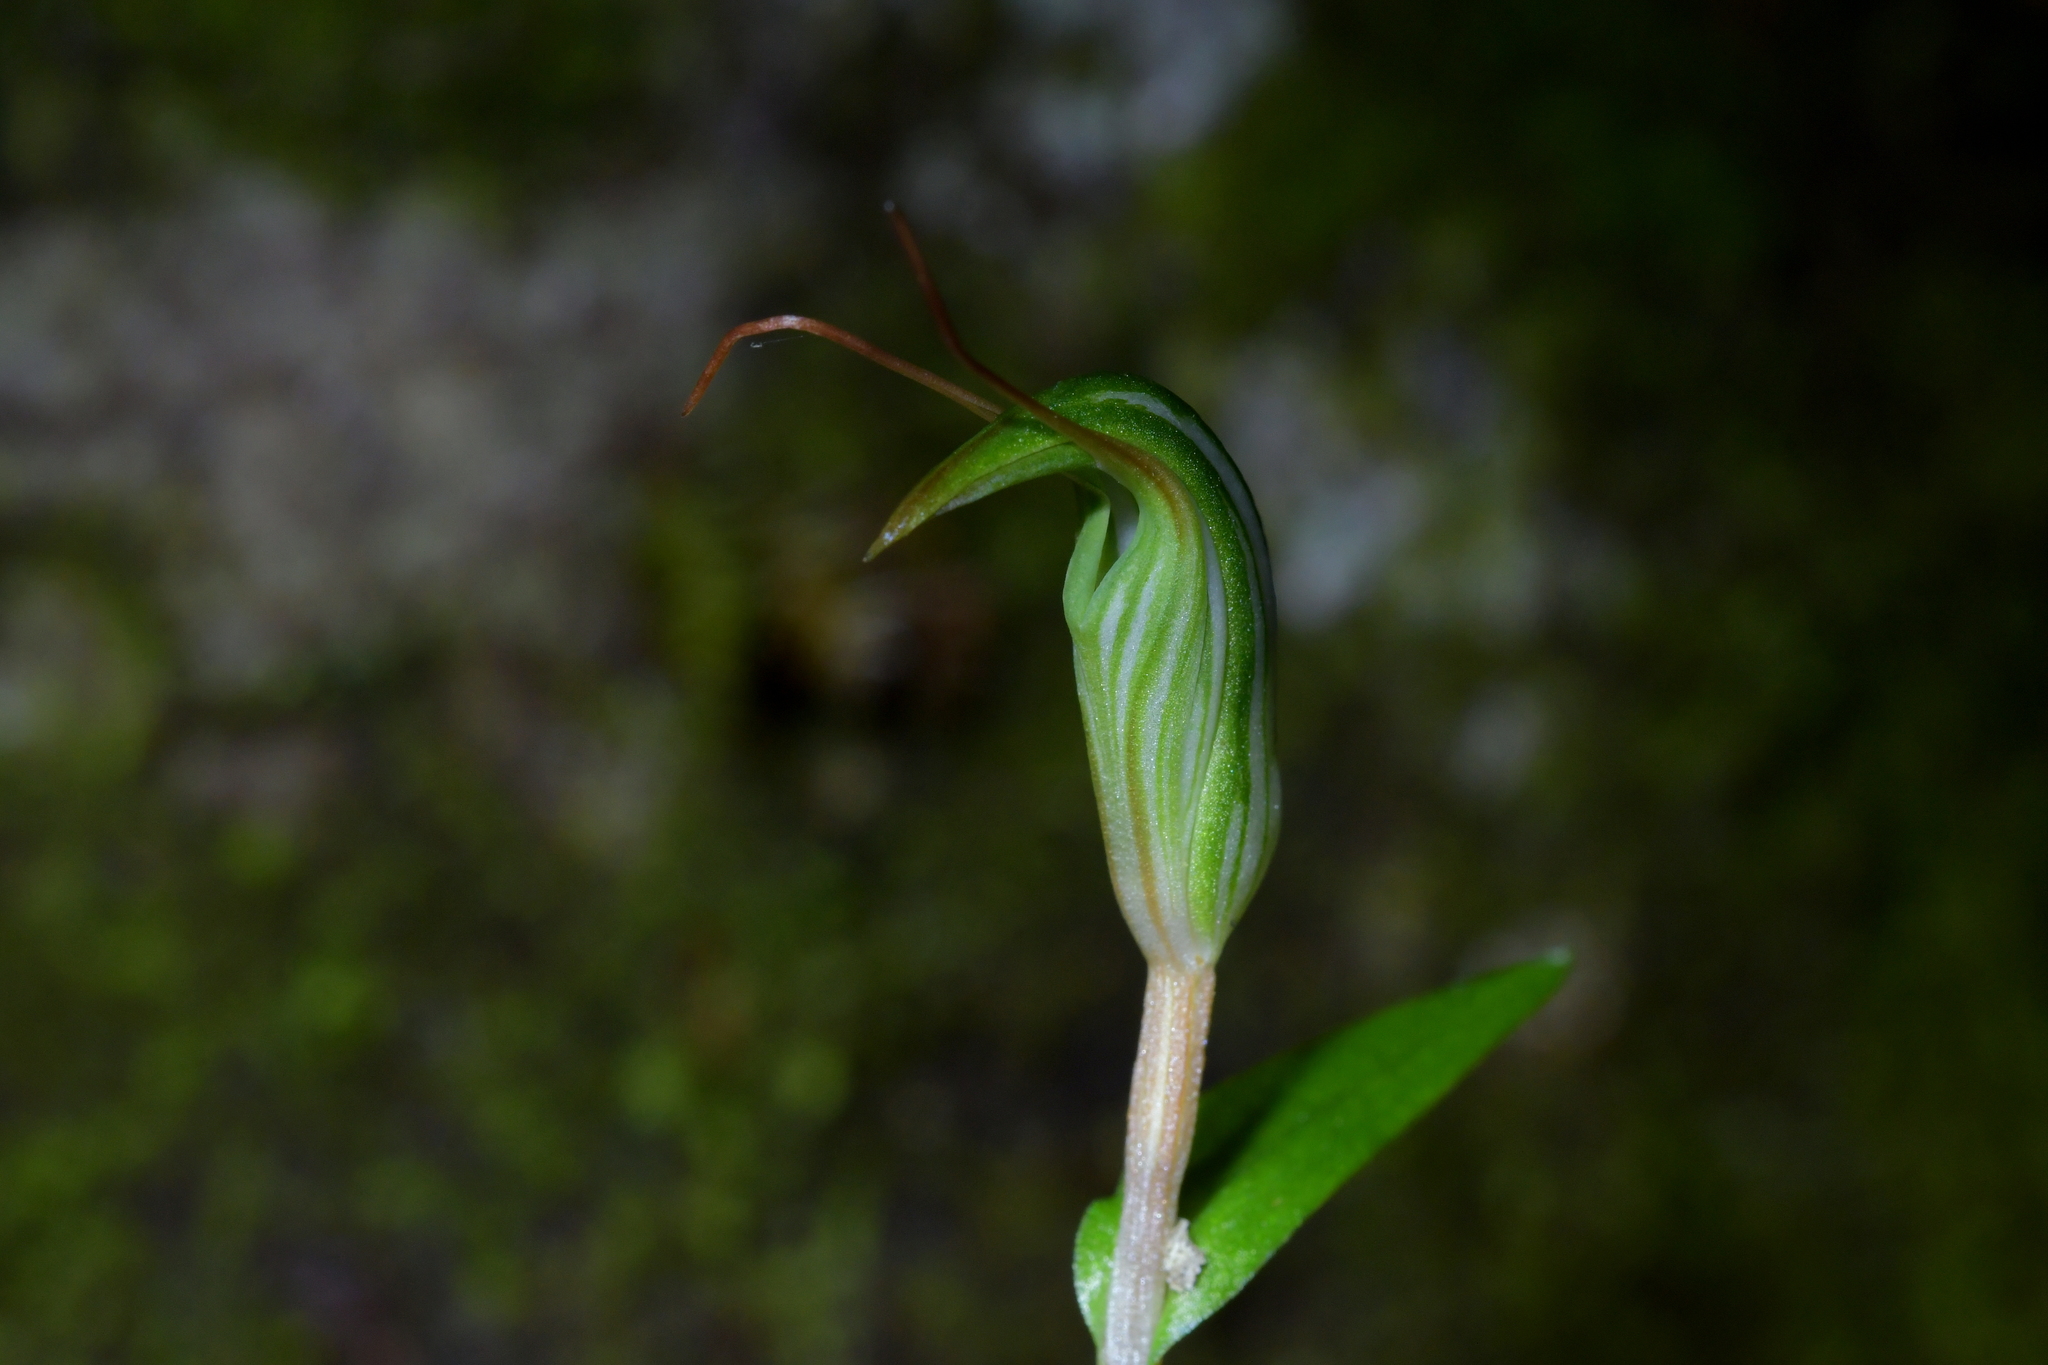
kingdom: Plantae
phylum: Tracheophyta
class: Liliopsida
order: Asparagales
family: Orchidaceae
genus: Pterostylis
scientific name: Pterostylis alobula
